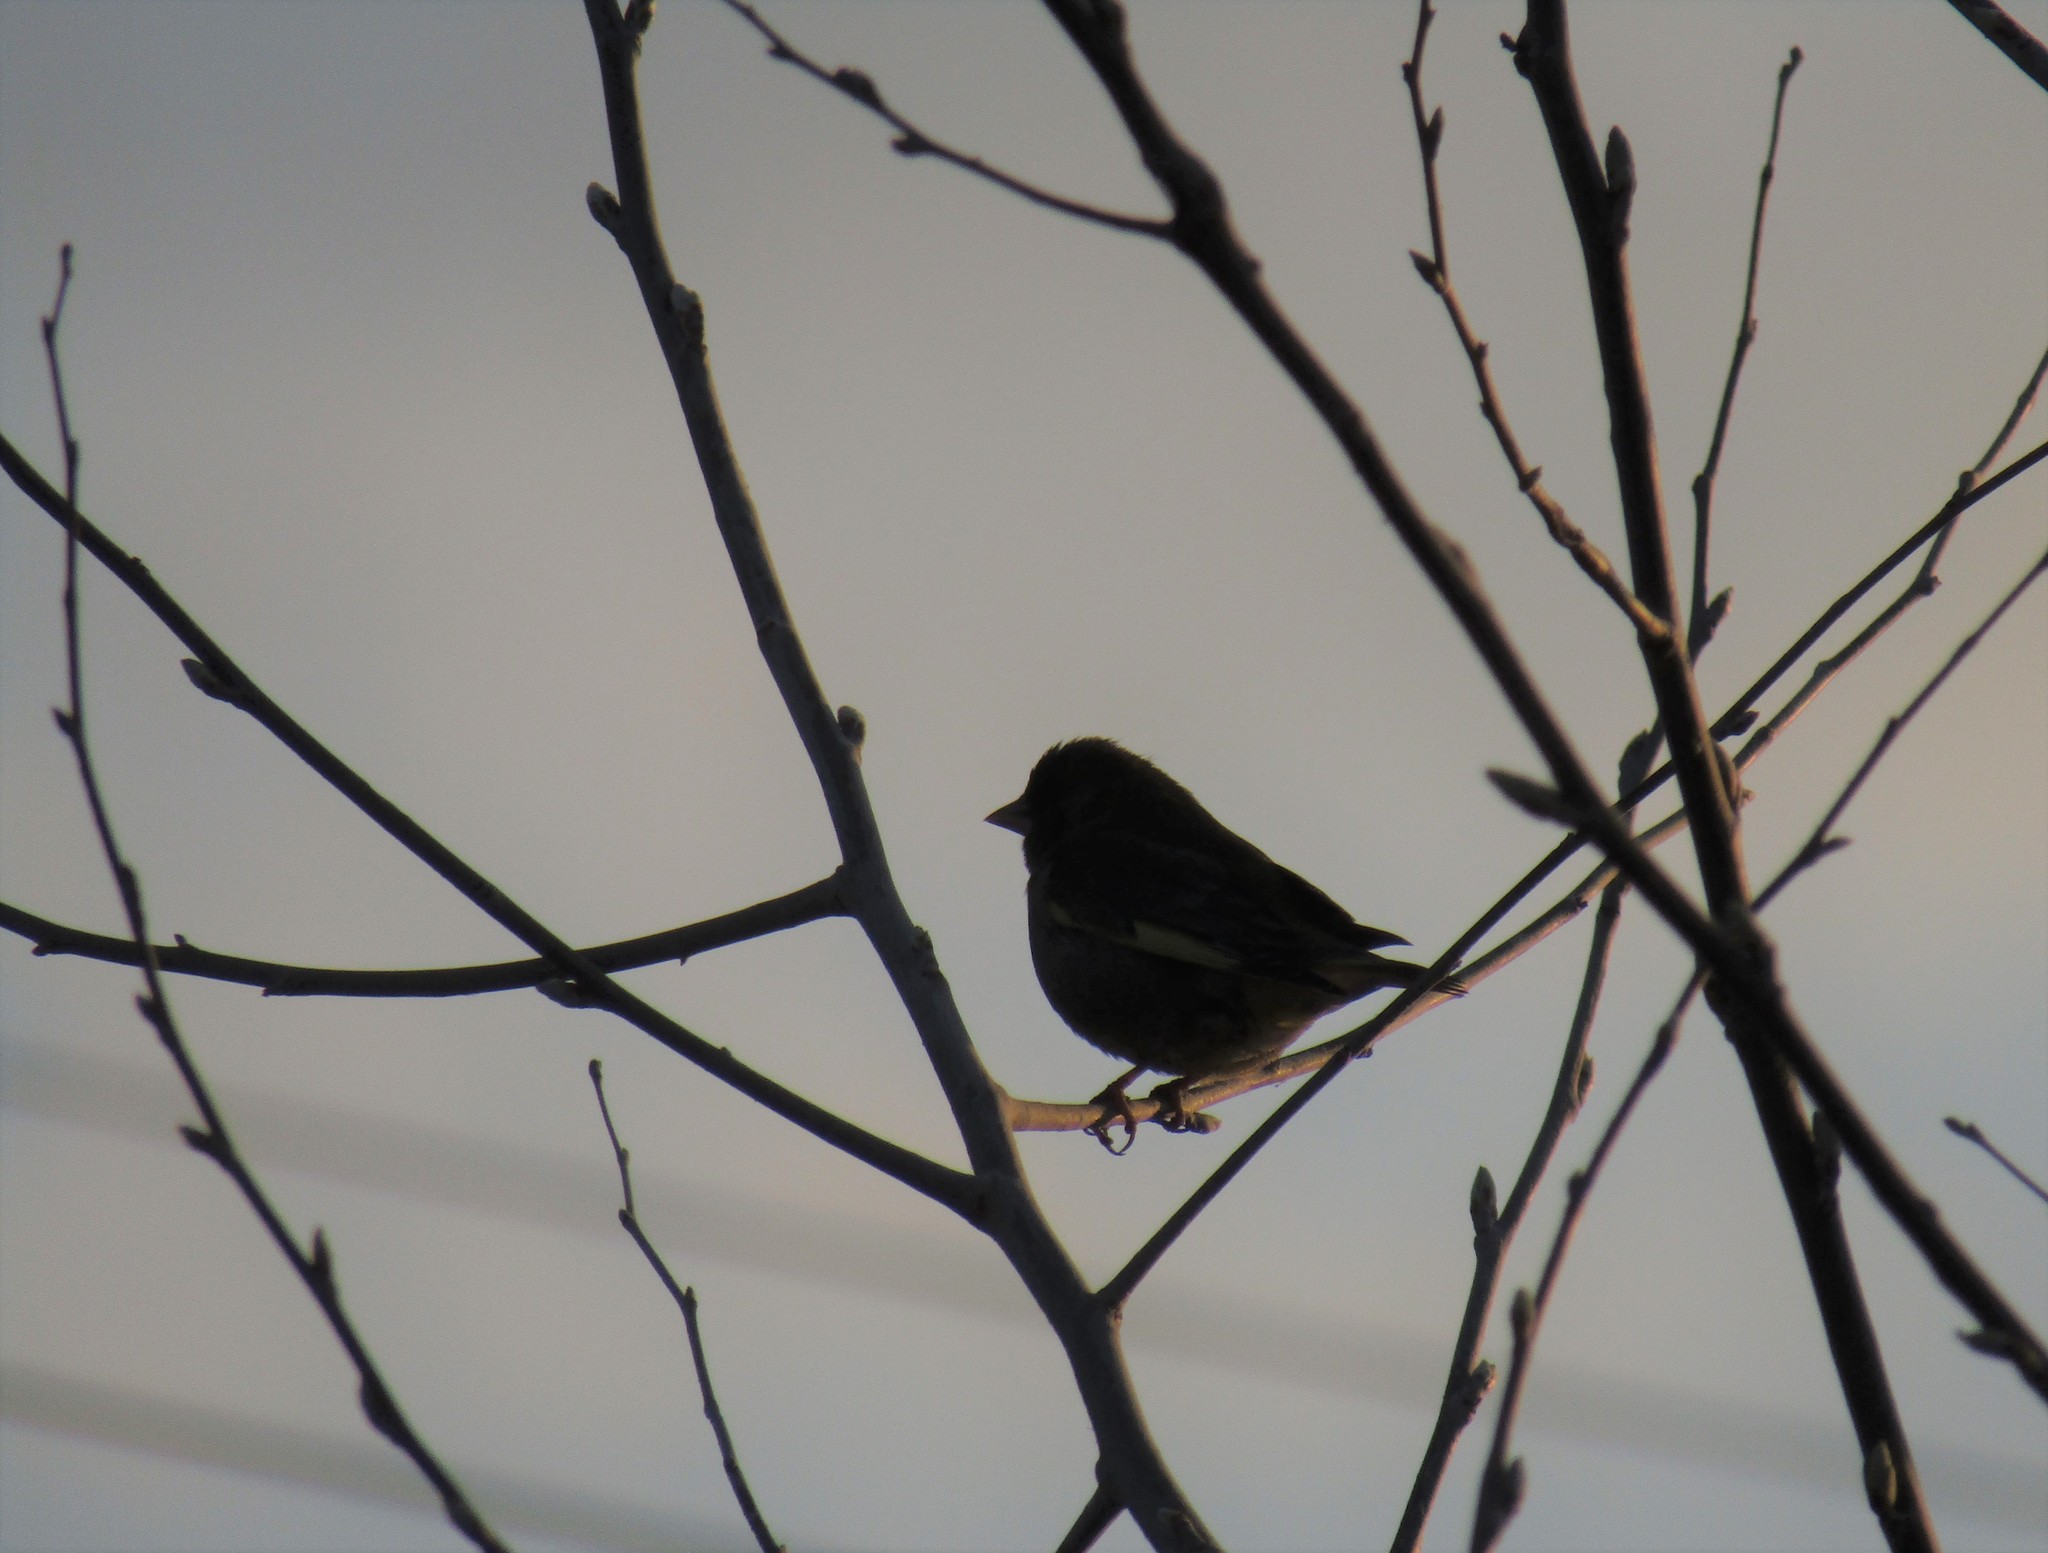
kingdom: Plantae
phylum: Tracheophyta
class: Liliopsida
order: Poales
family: Poaceae
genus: Chloris
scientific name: Chloris chloris
